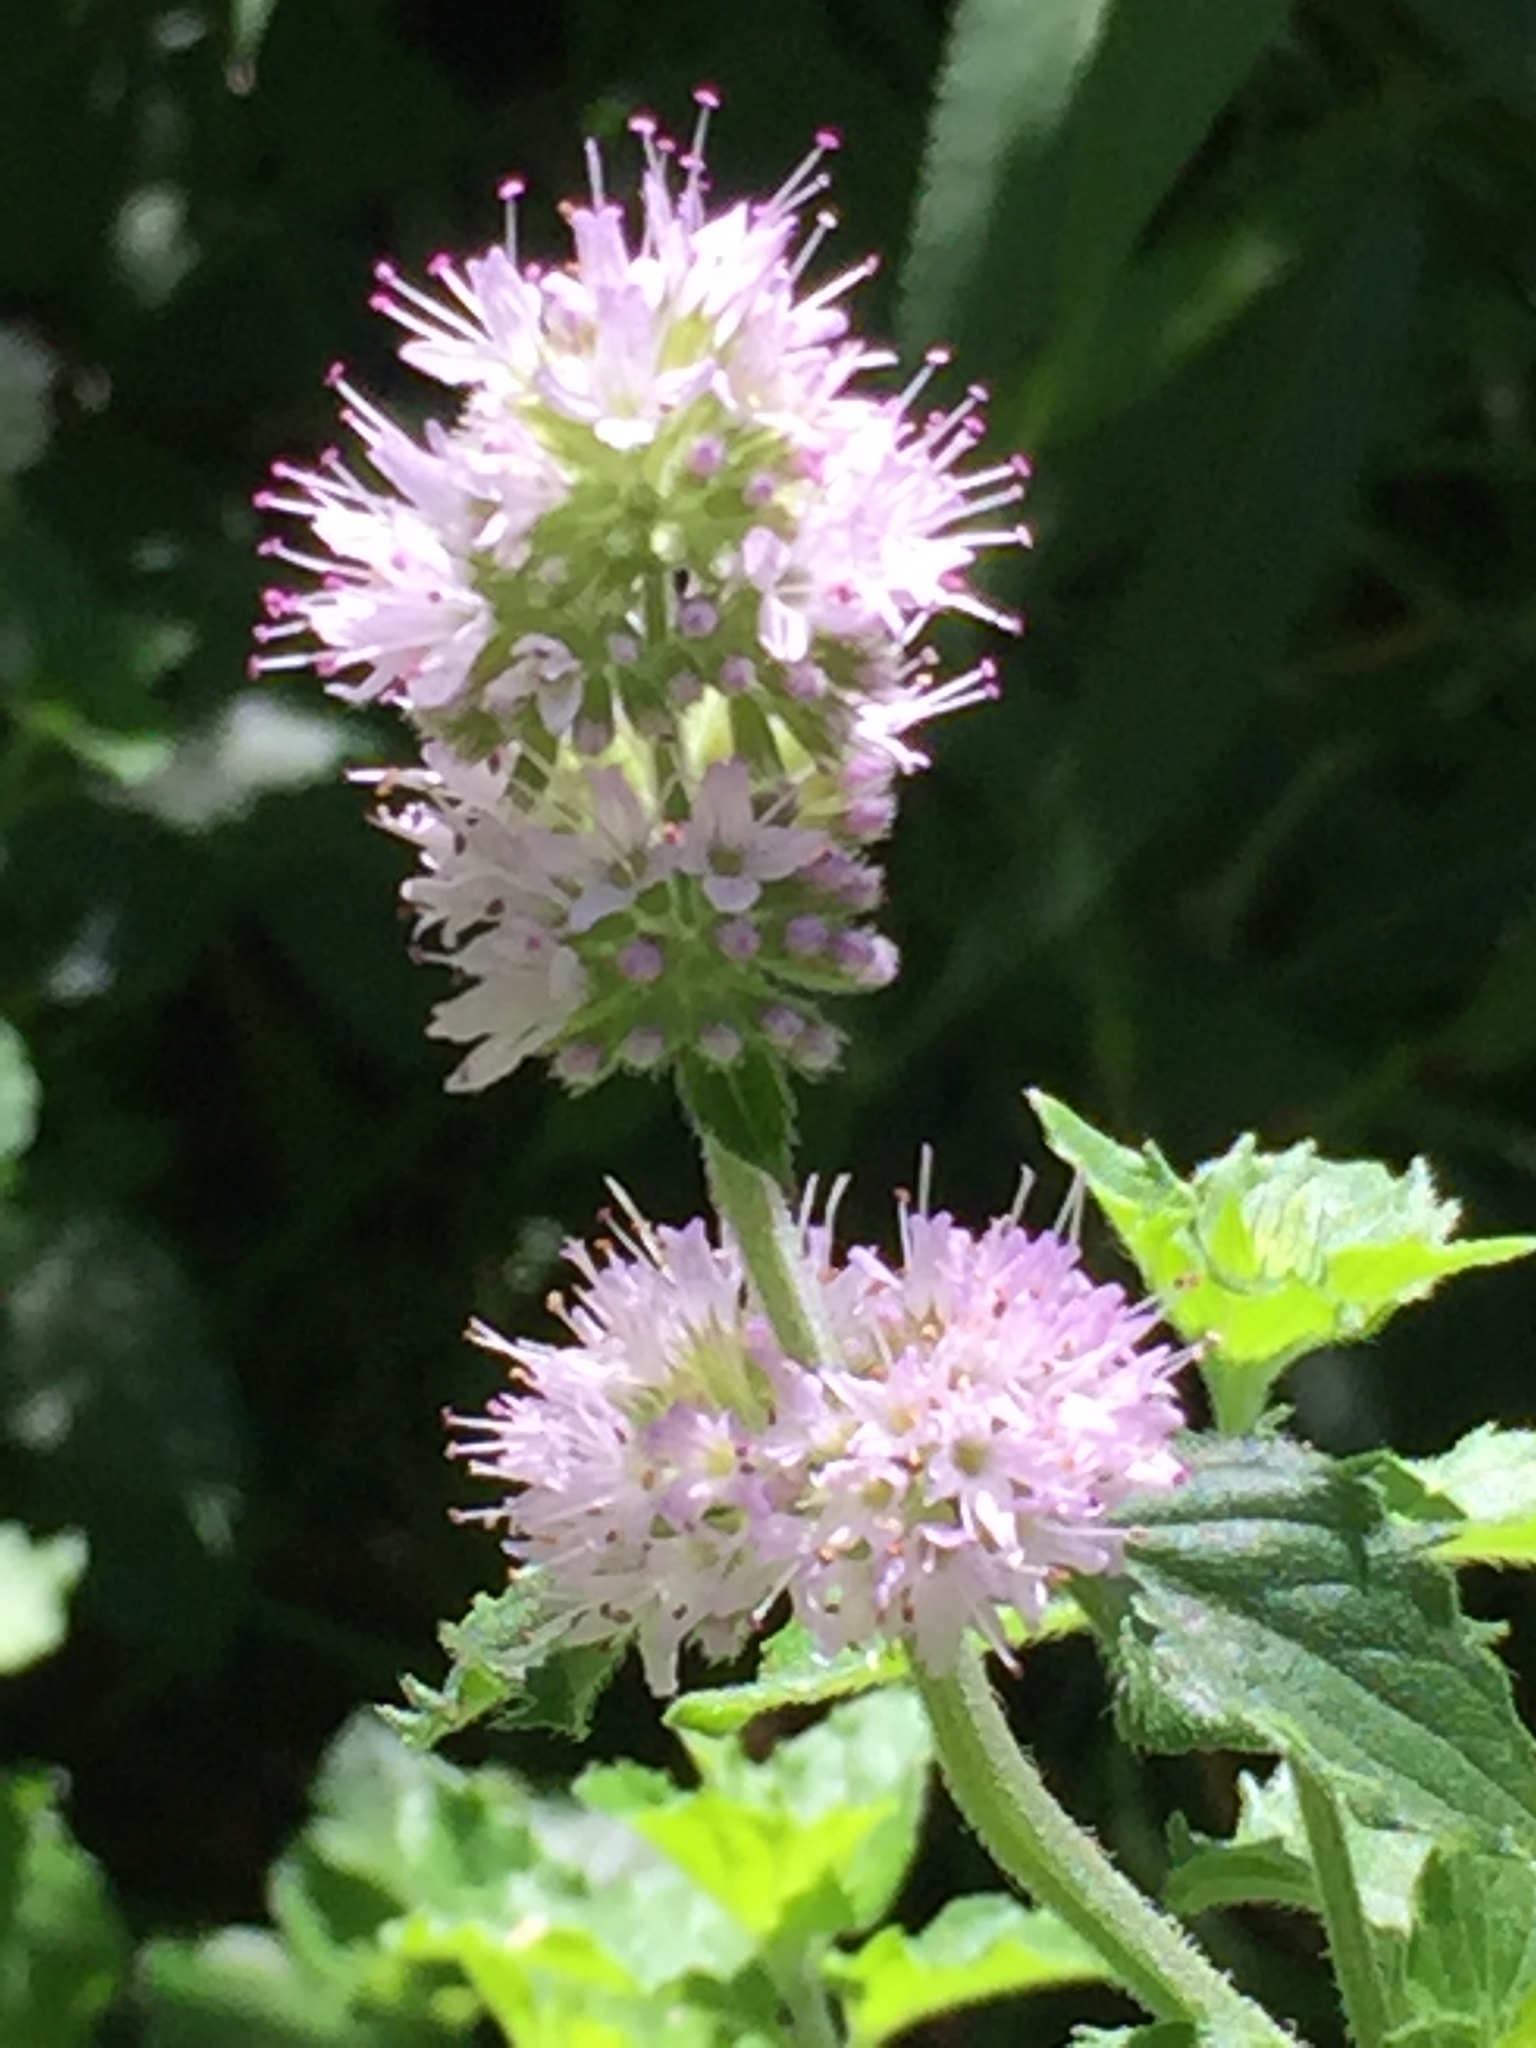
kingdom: Plantae
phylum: Tracheophyta
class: Magnoliopsida
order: Lamiales
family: Lamiaceae
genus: Mentha
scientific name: Mentha pulegium
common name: Pennyroyal
